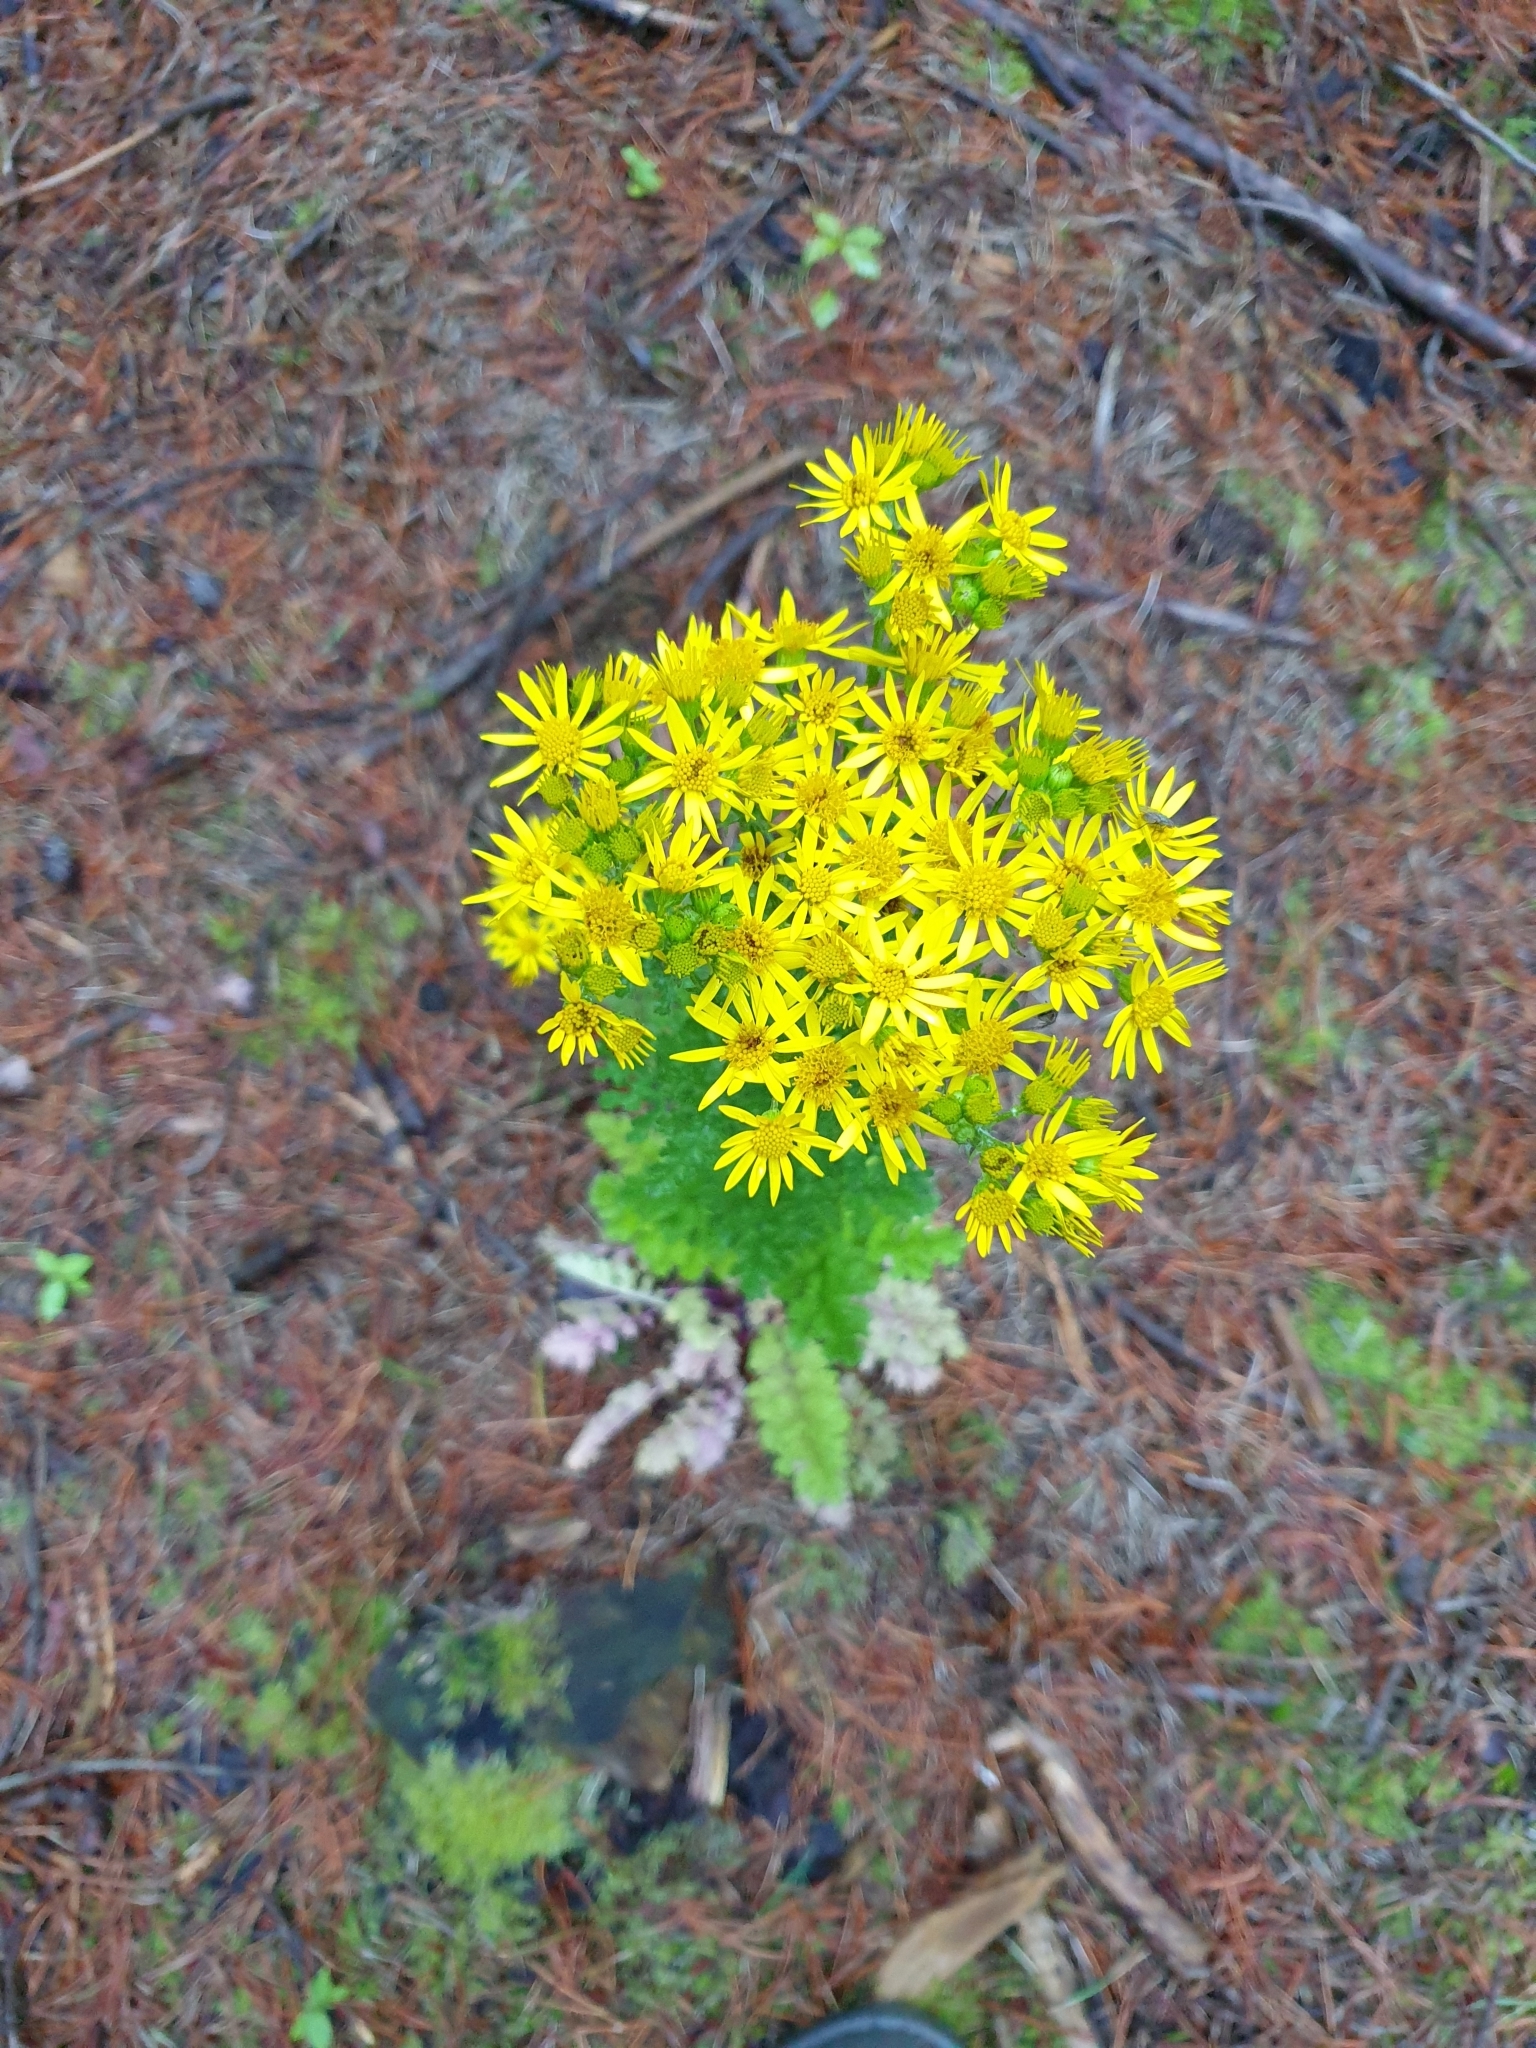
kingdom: Plantae
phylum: Tracheophyta
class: Magnoliopsida
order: Asterales
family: Asteraceae
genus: Jacobaea
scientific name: Jacobaea vulgaris
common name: Stinking willie
